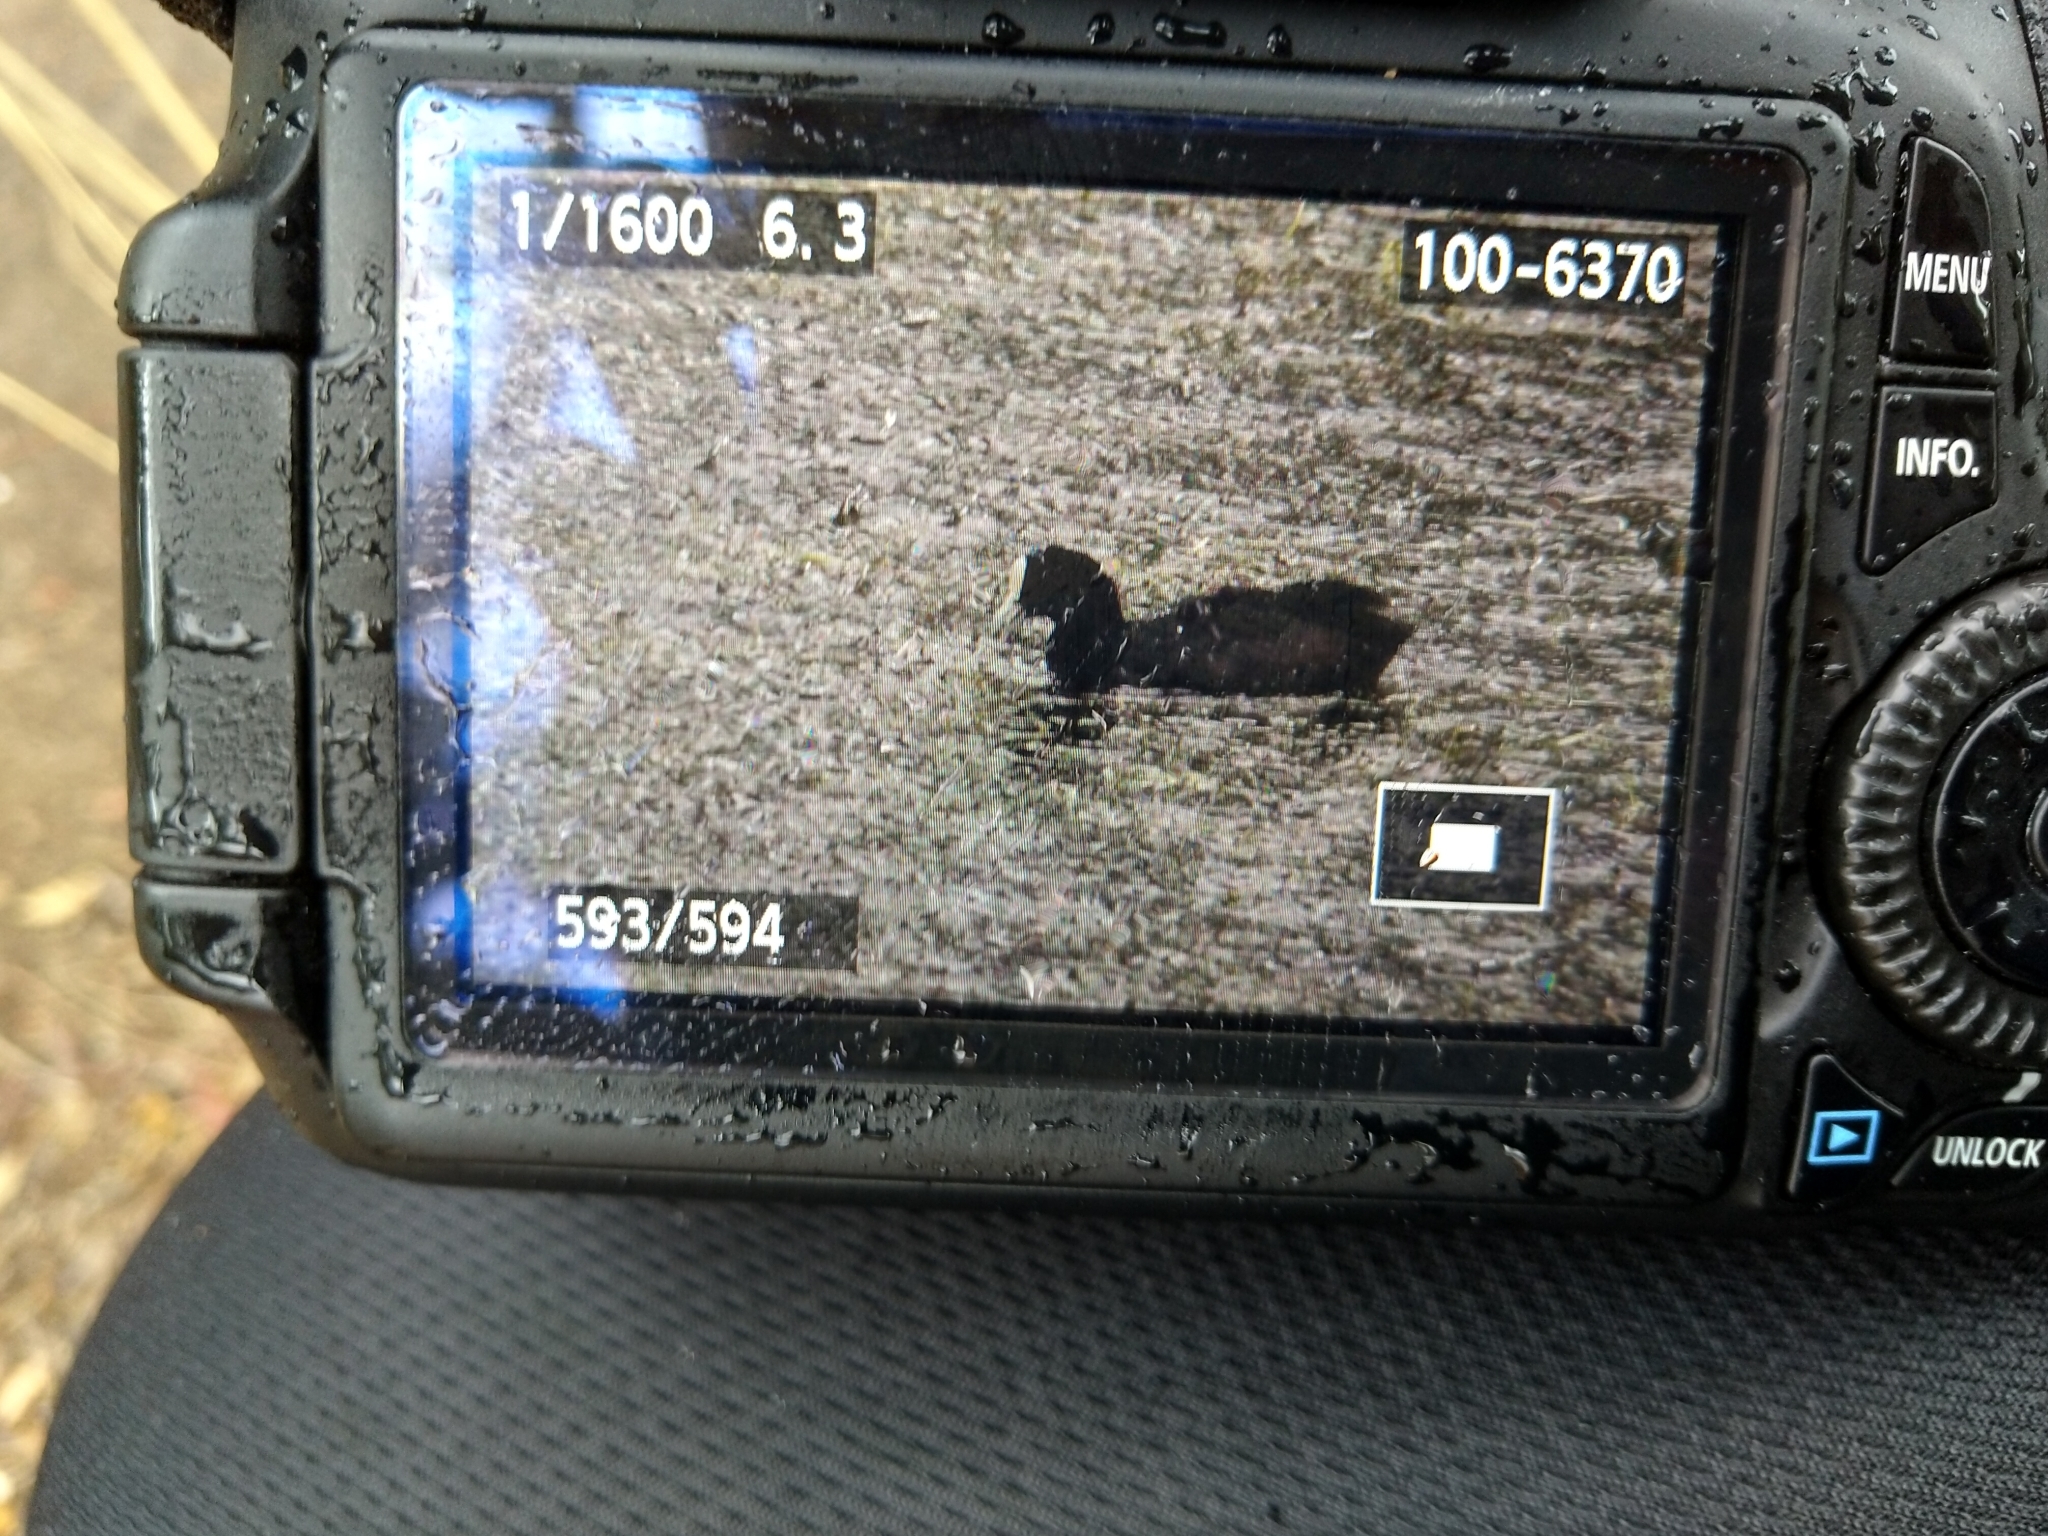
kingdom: Animalia
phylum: Chordata
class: Aves
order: Gruiformes
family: Rallidae
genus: Fulica
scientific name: Fulica atra
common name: Eurasian coot
